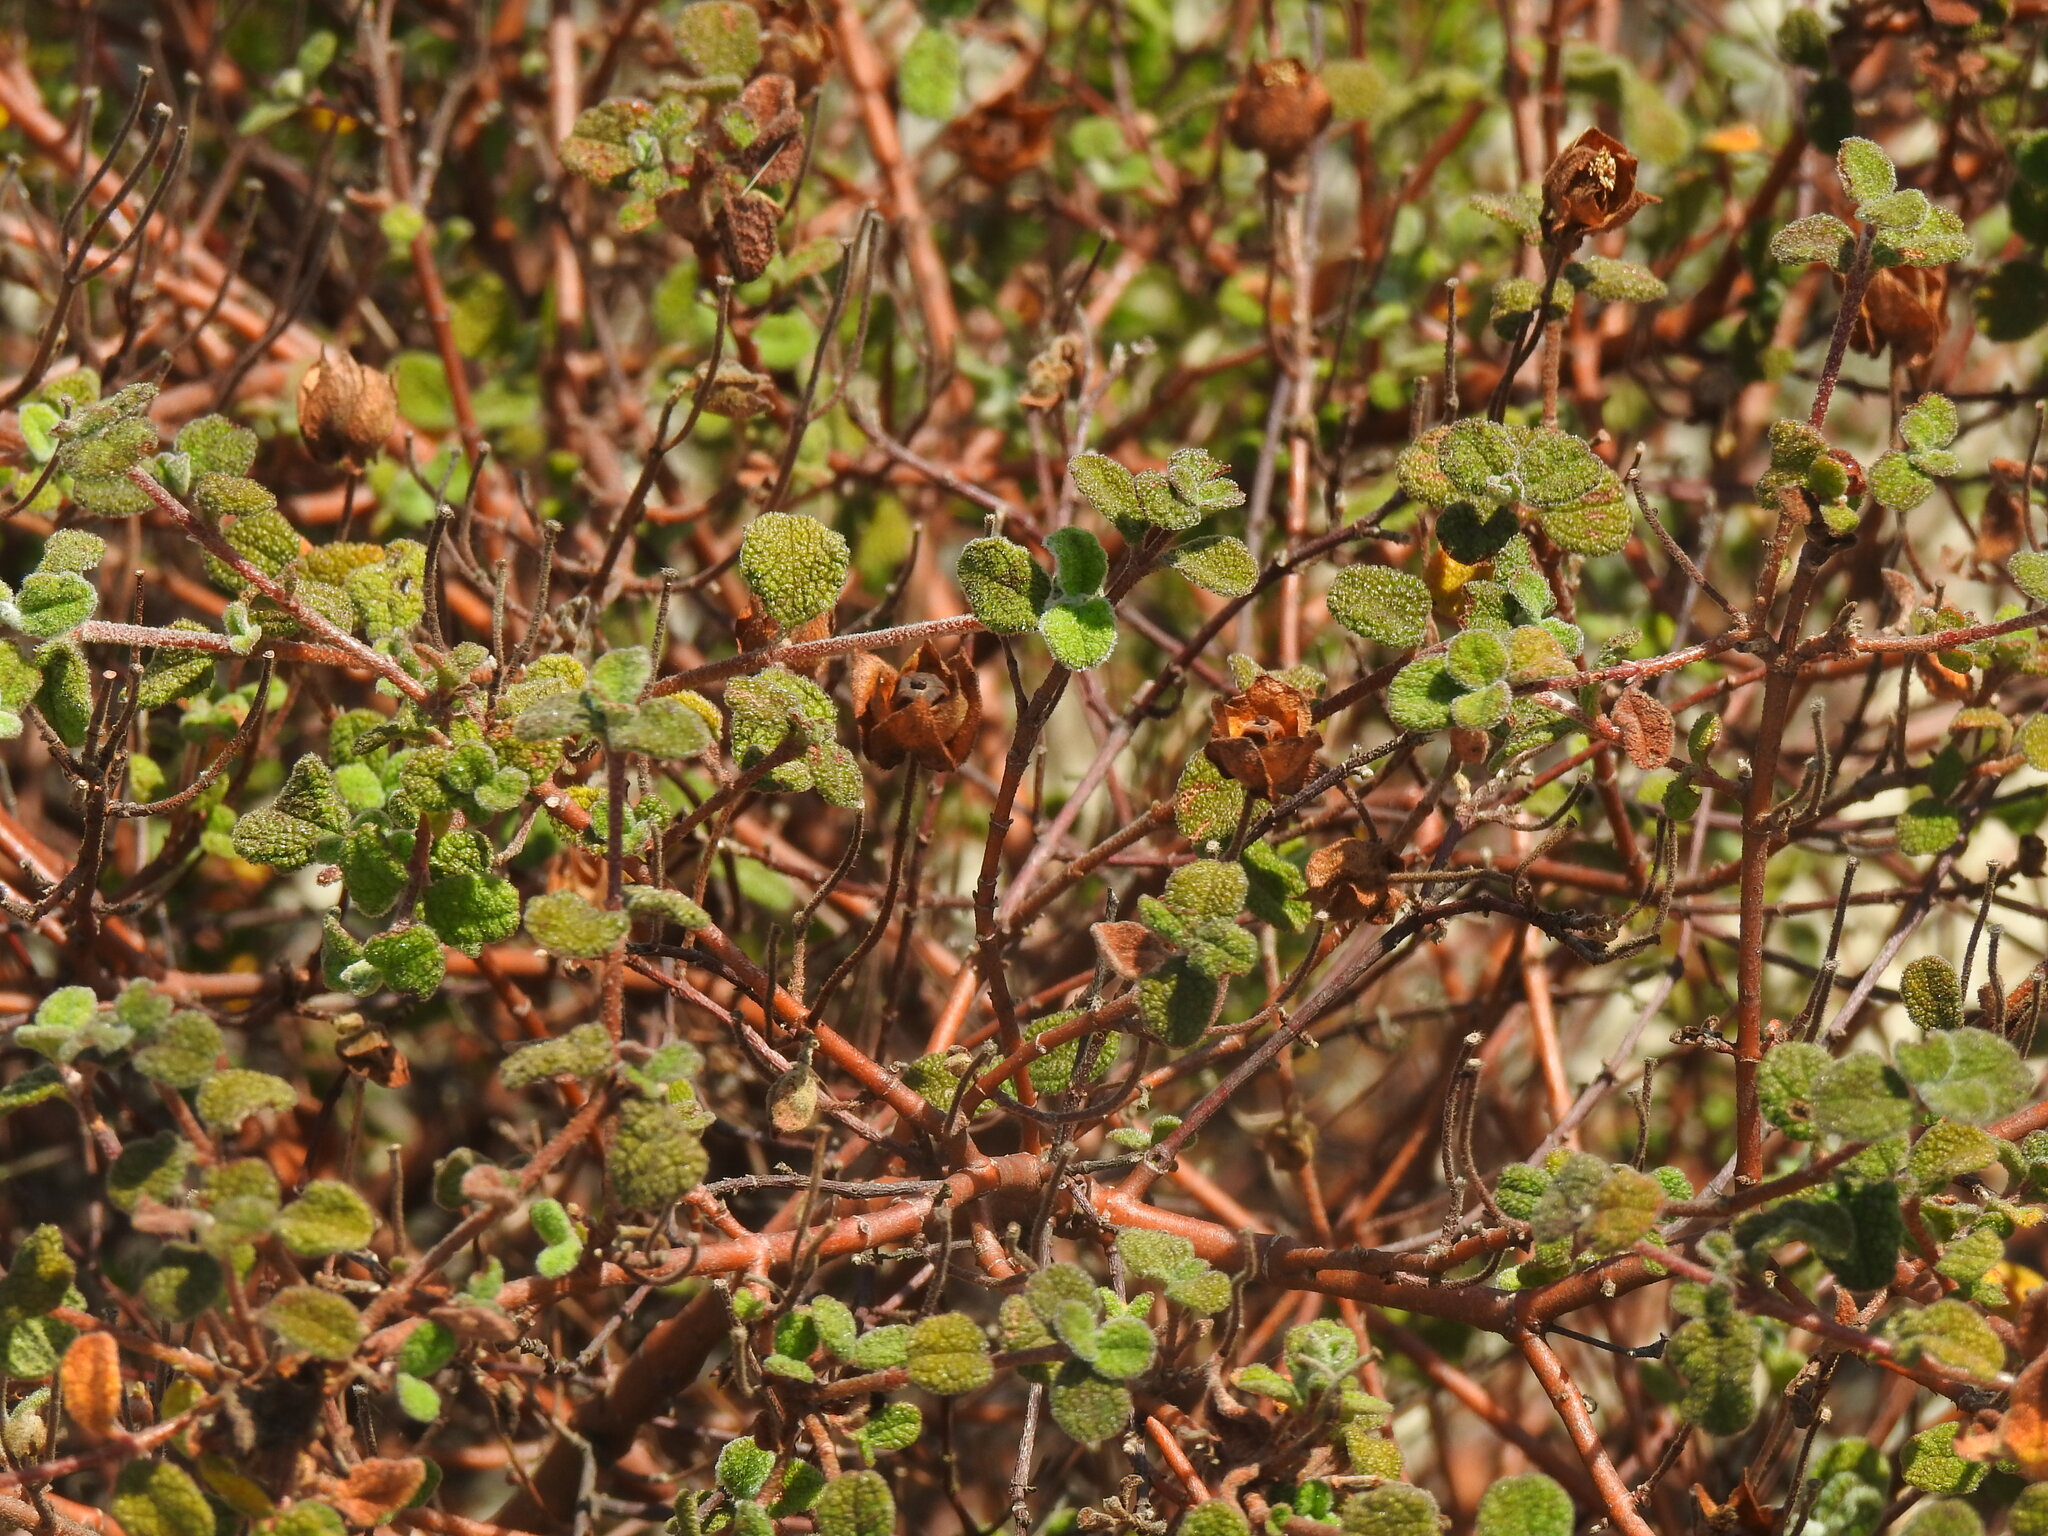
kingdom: Plantae
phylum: Tracheophyta
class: Magnoliopsida
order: Malvales
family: Cistaceae
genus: Cistus
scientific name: Cistus salviifolius
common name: Salvia cistus
